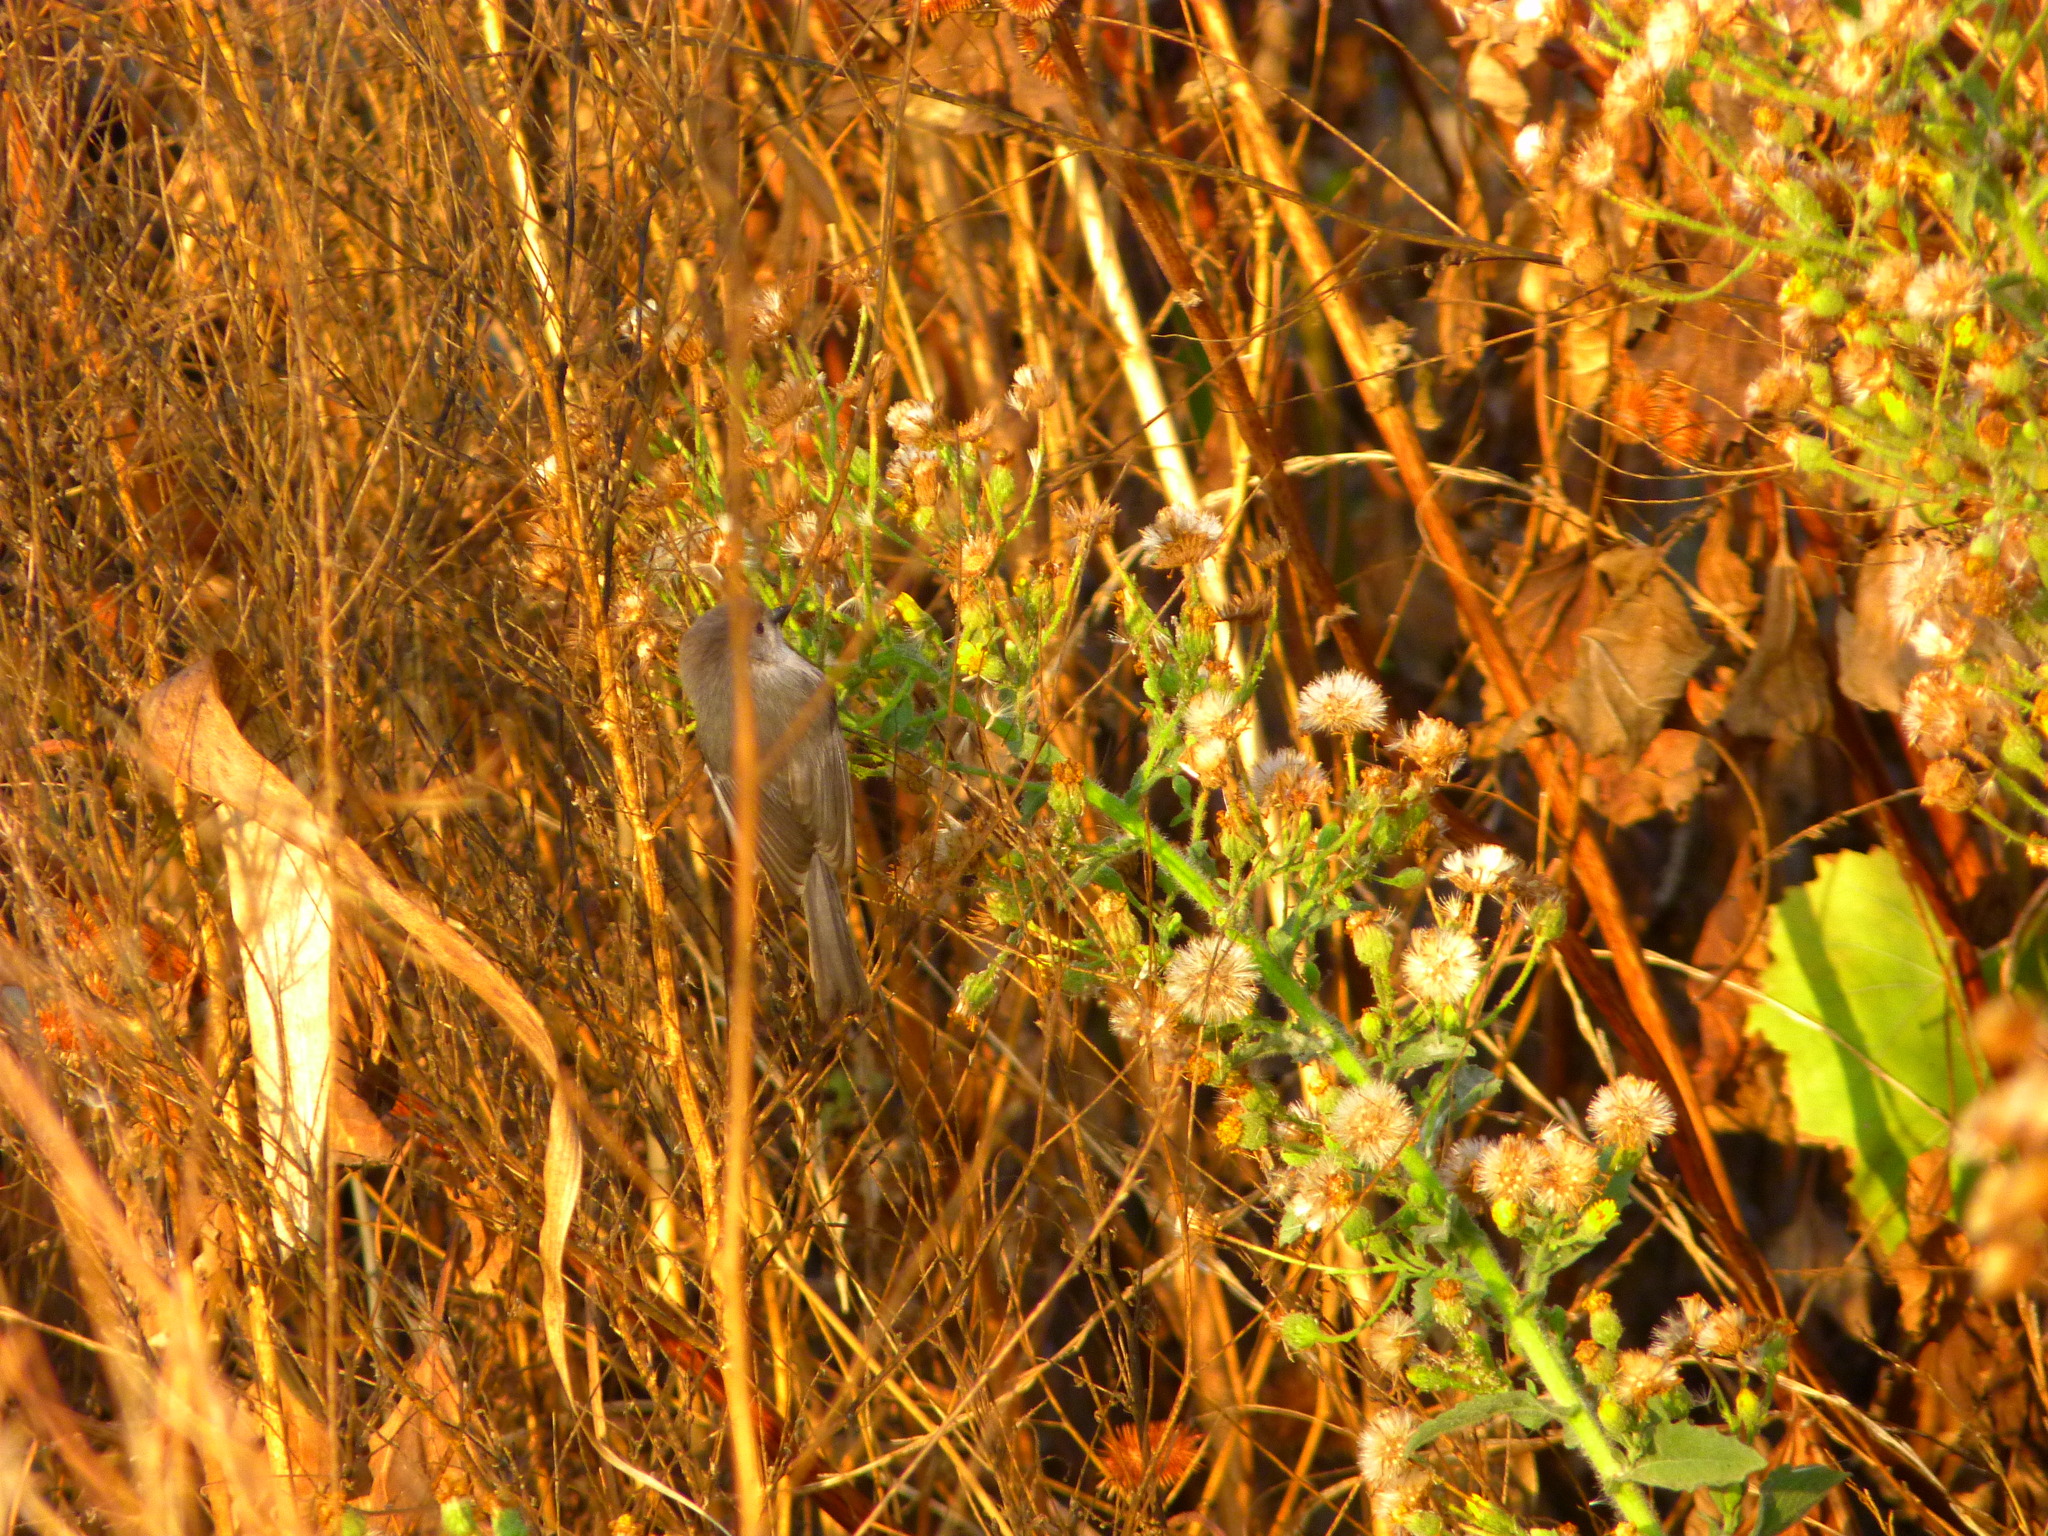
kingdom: Animalia
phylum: Chordata
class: Aves
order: Passeriformes
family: Aegithalidae
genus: Psaltriparus
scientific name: Psaltriparus minimus
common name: American bushtit
